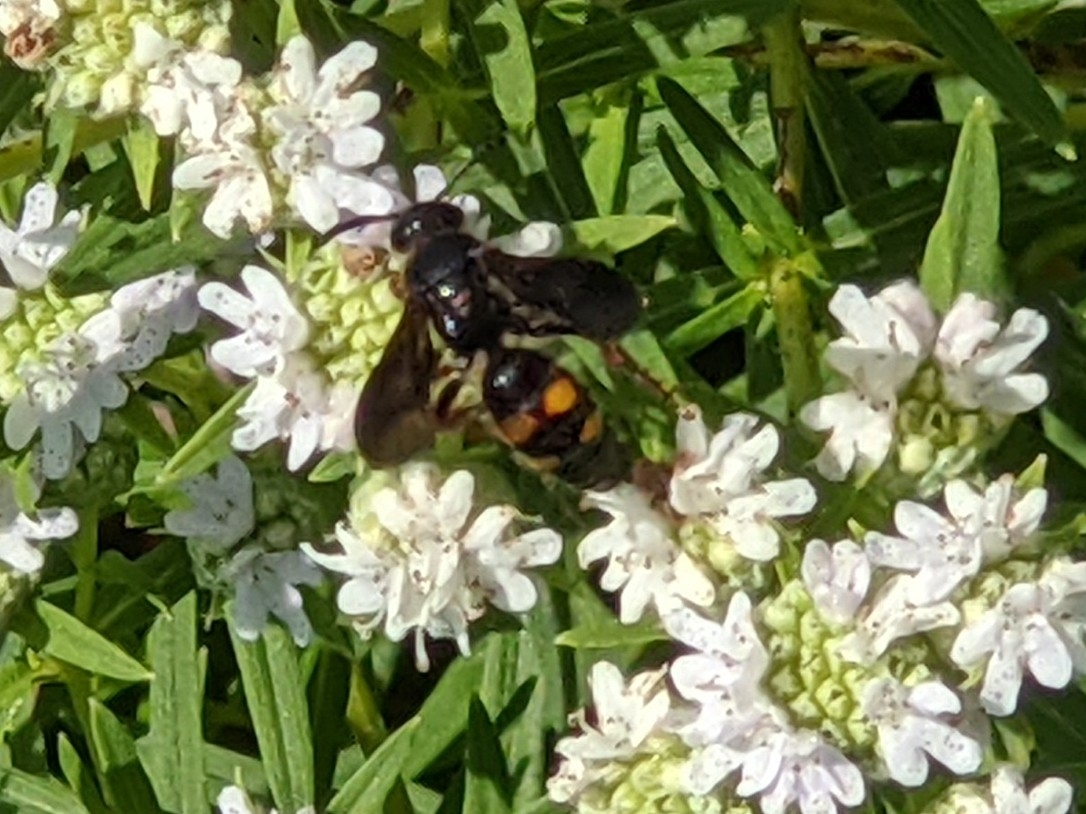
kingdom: Animalia
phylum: Arthropoda
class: Insecta
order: Hymenoptera
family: Scoliidae
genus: Scolia
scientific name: Scolia nobilitata
